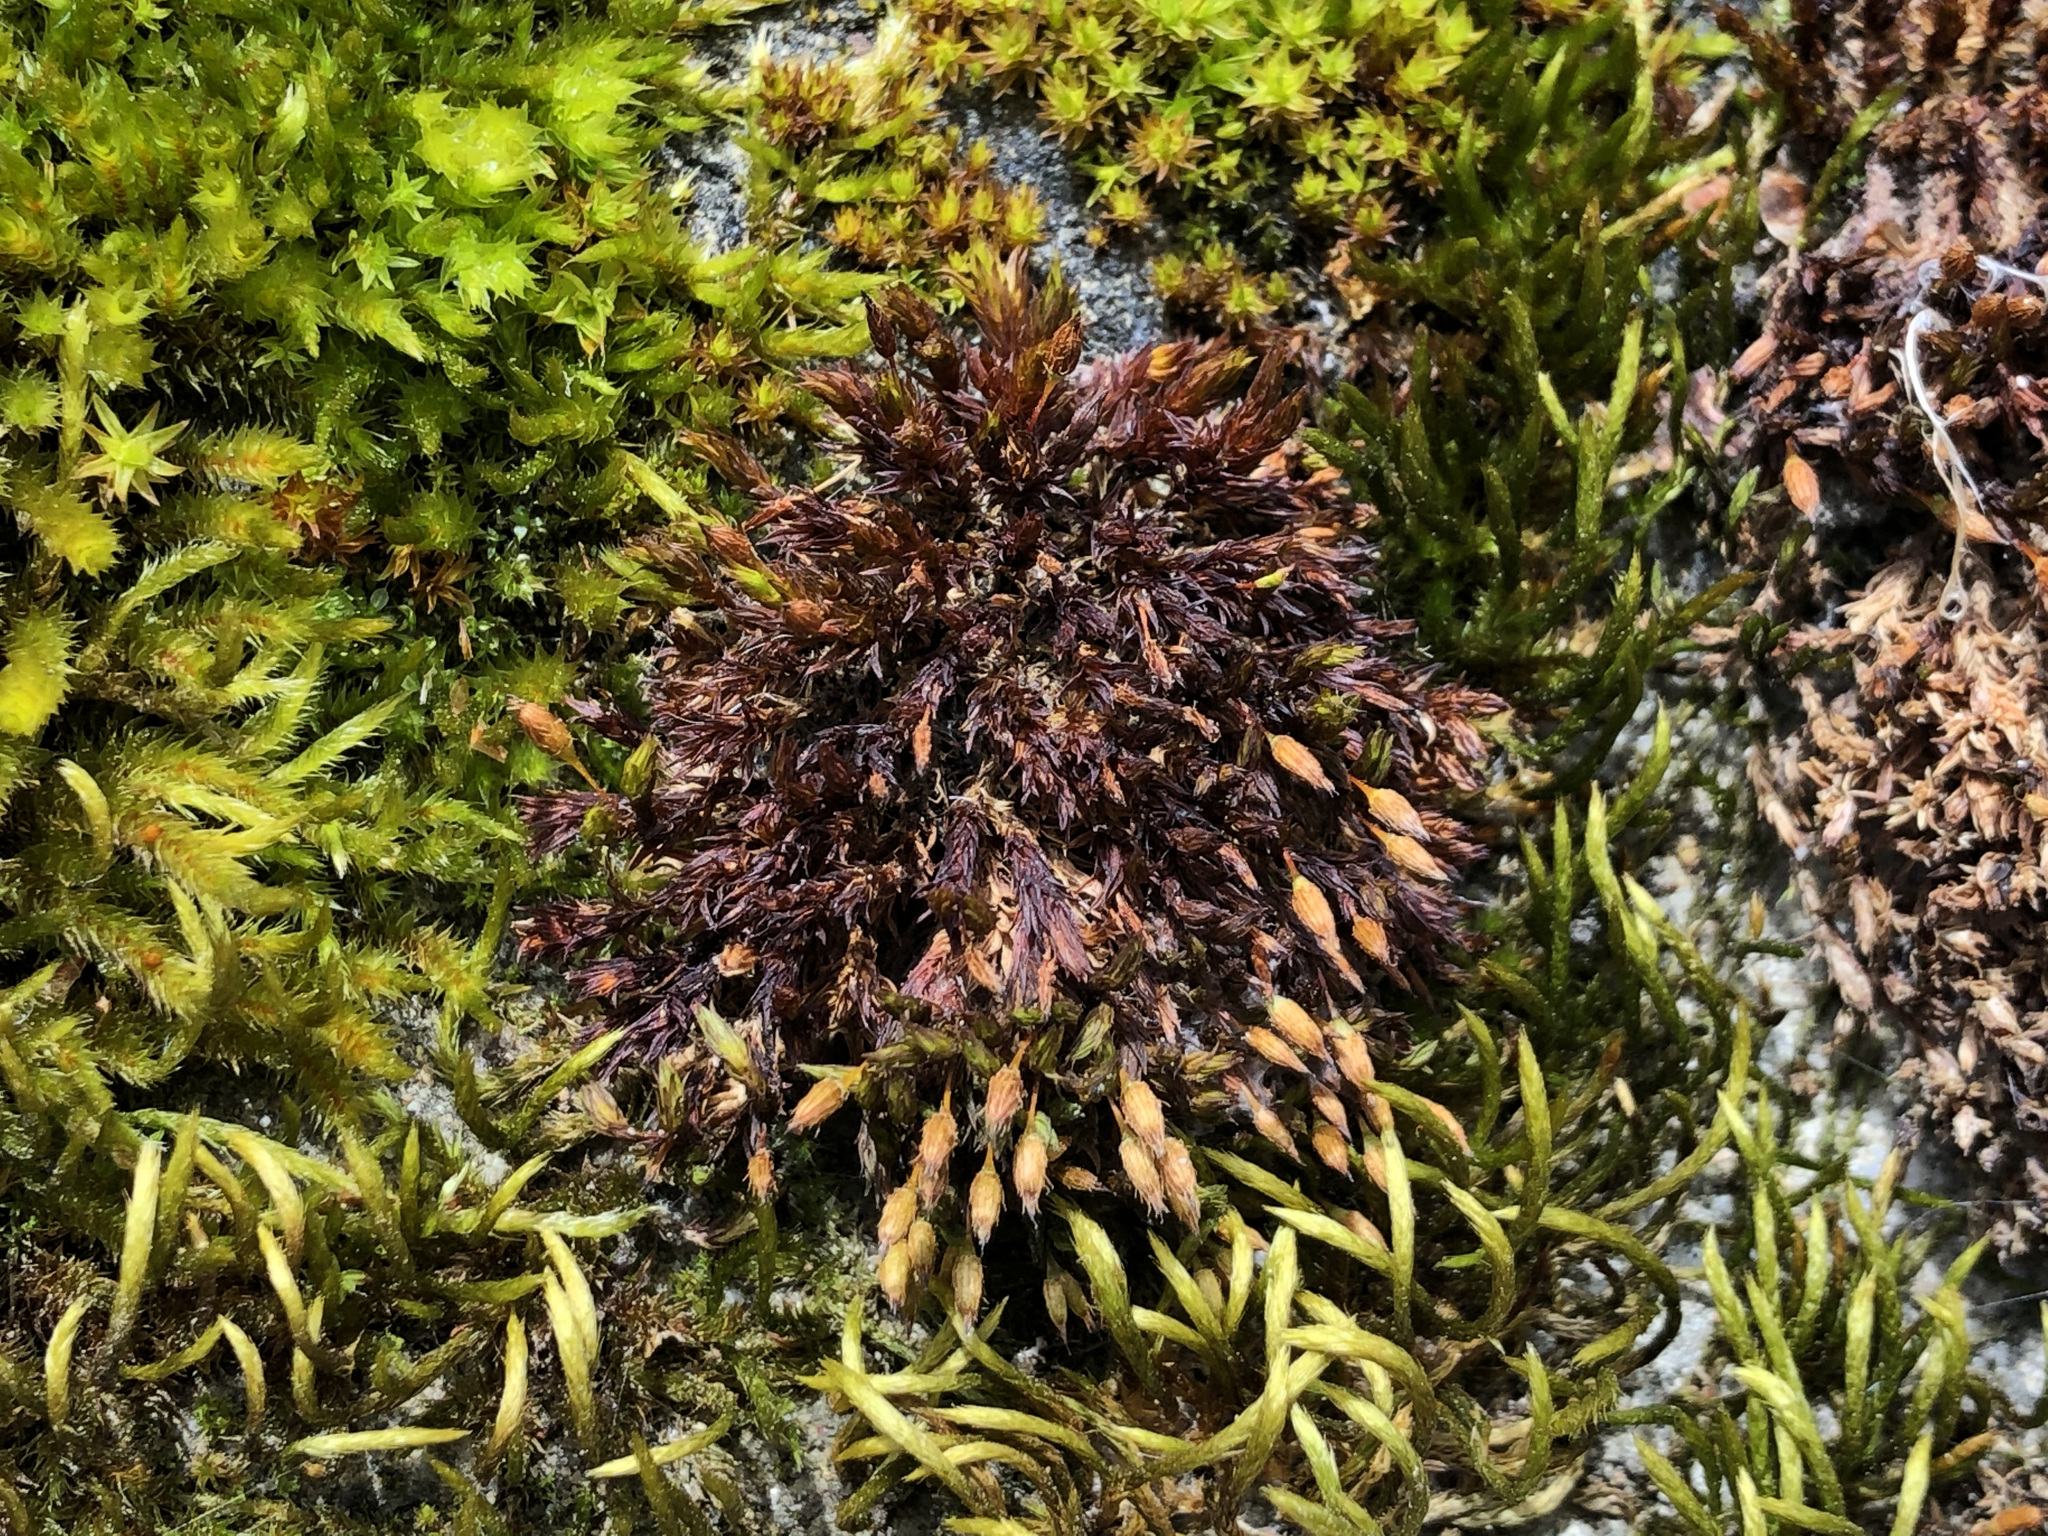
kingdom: Plantae
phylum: Bryophyta
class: Bryopsida
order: Orthotrichales
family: Orthotrichaceae
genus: Orthotrichum
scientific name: Orthotrichum anomalum
